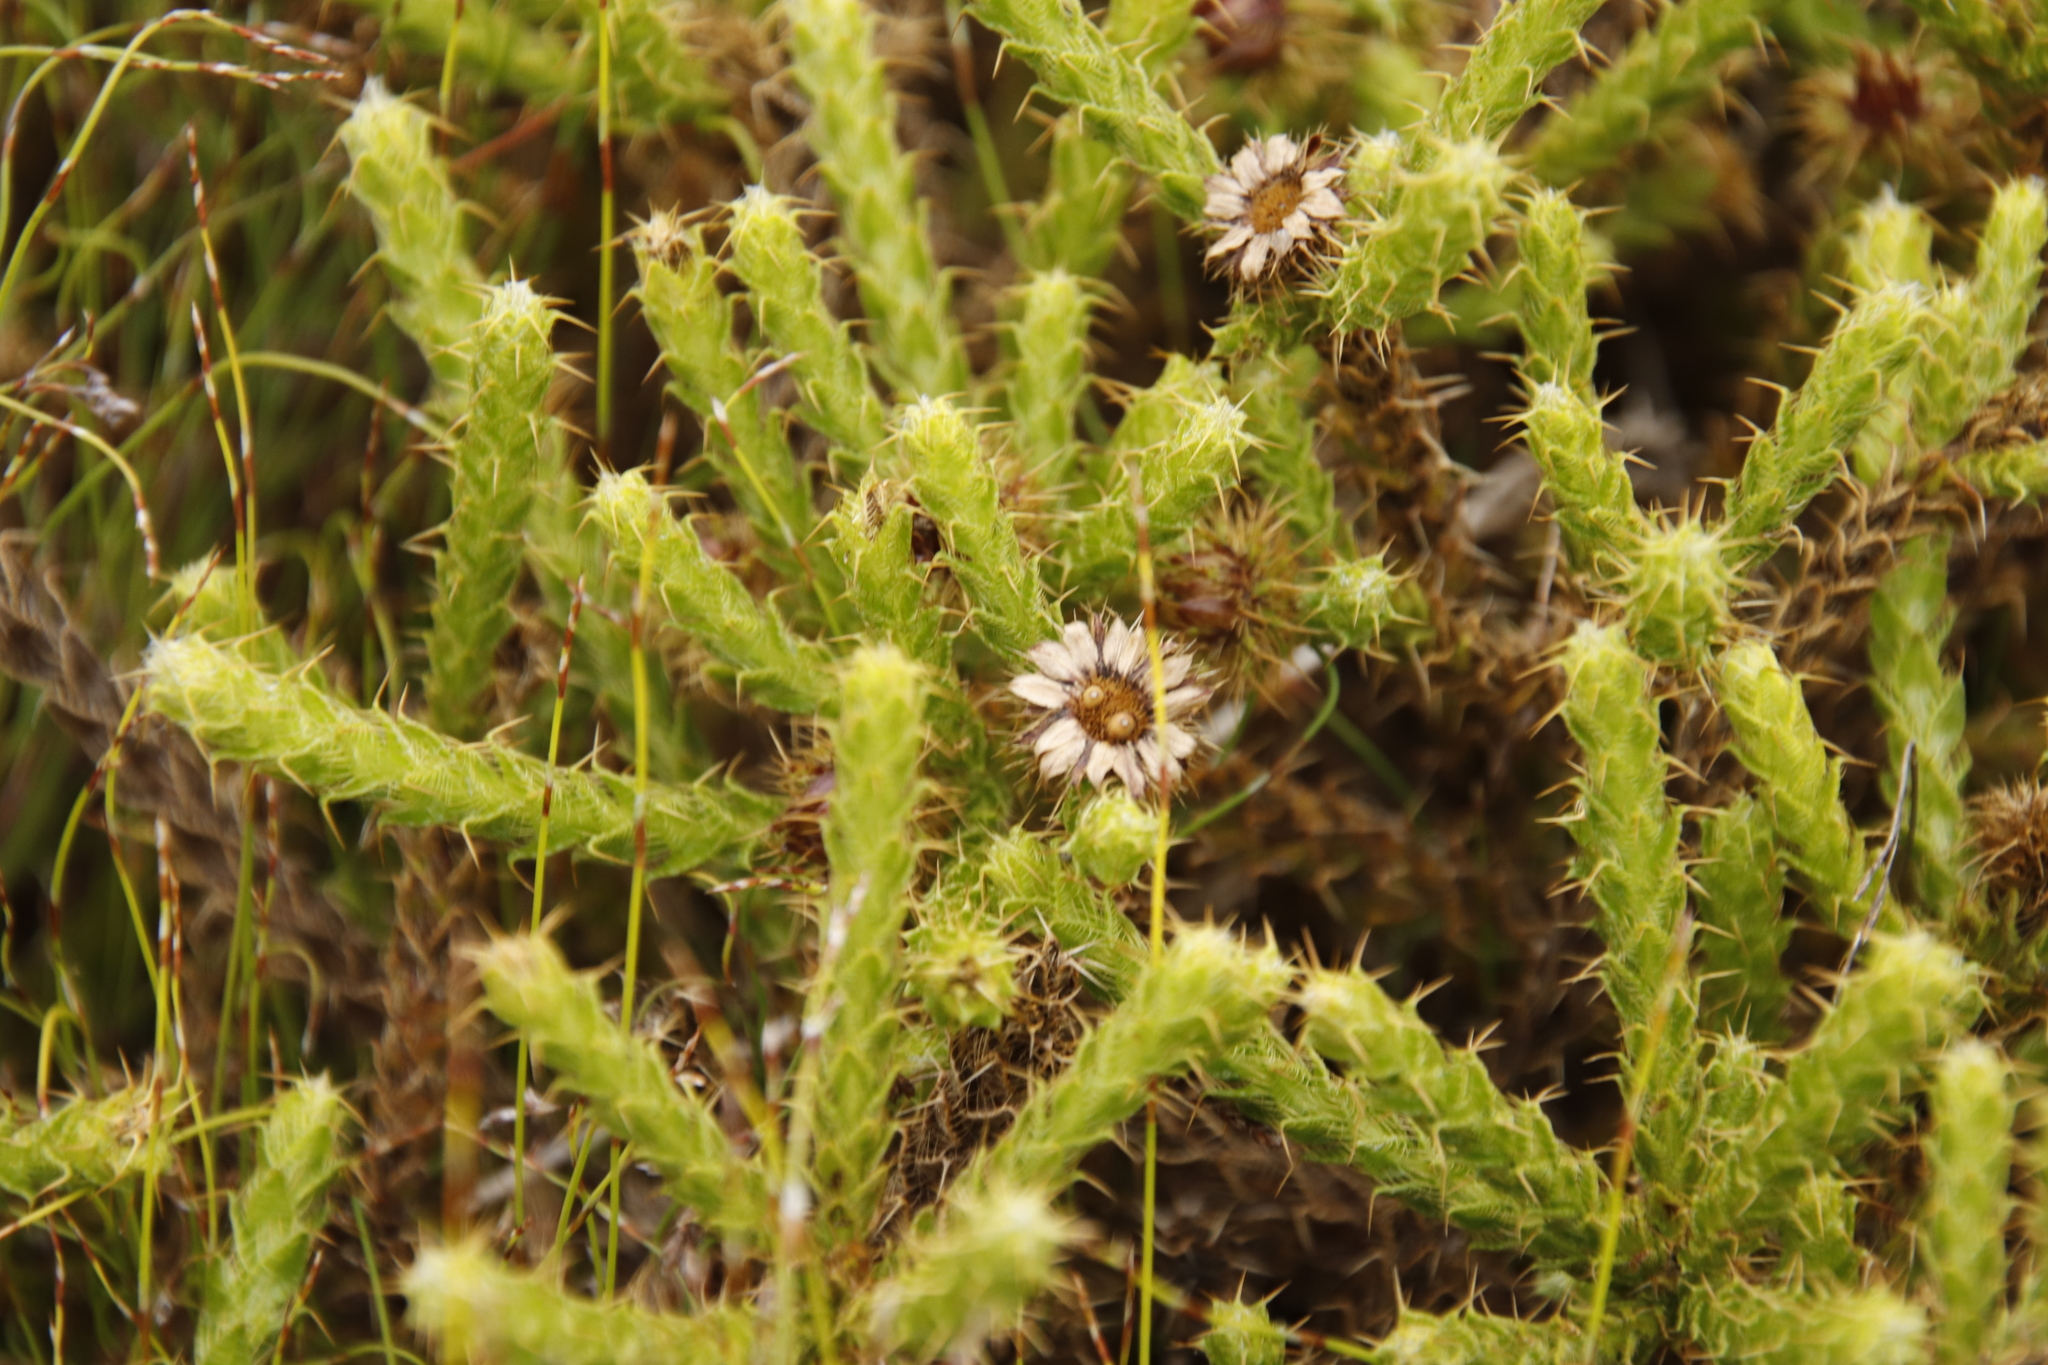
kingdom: Plantae
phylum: Tracheophyta
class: Magnoliopsida
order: Asterales
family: Asteraceae
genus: Cullumia
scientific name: Cullumia reticulata
